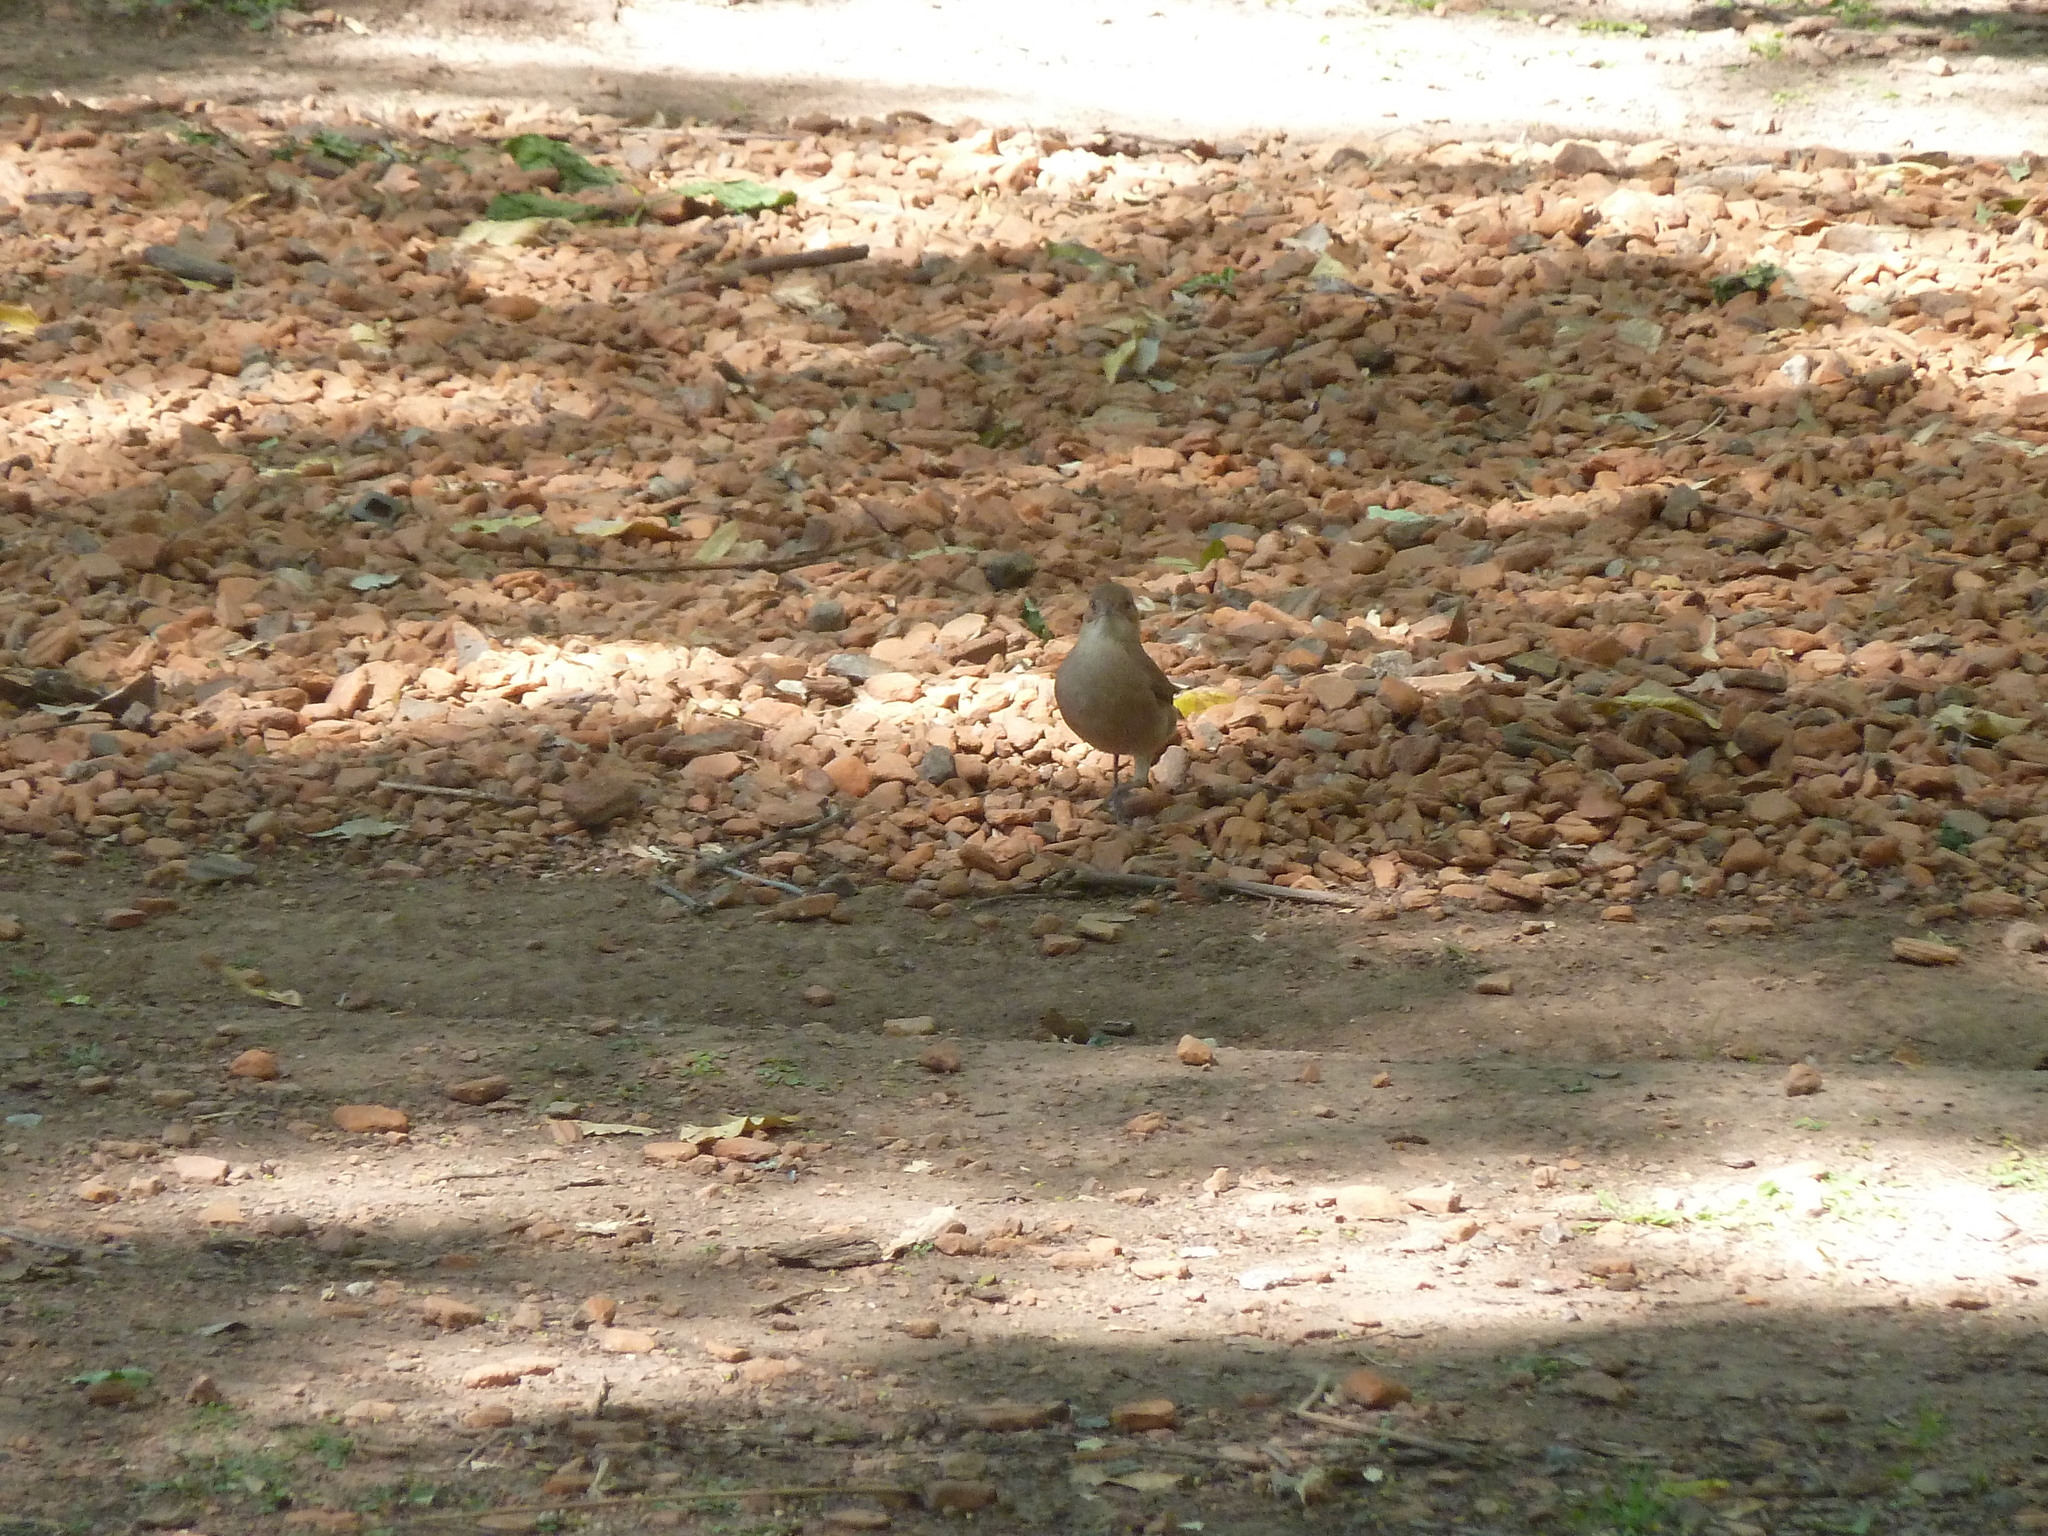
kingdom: Animalia
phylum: Chordata
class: Aves
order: Passeriformes
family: Furnariidae
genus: Furnarius
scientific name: Furnarius rufus
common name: Rufous hornero
